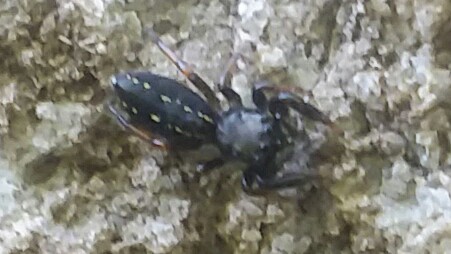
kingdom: Animalia
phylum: Arthropoda
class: Arachnida
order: Araneae
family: Salticidae
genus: Metacyrba
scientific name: Metacyrba taeniola
